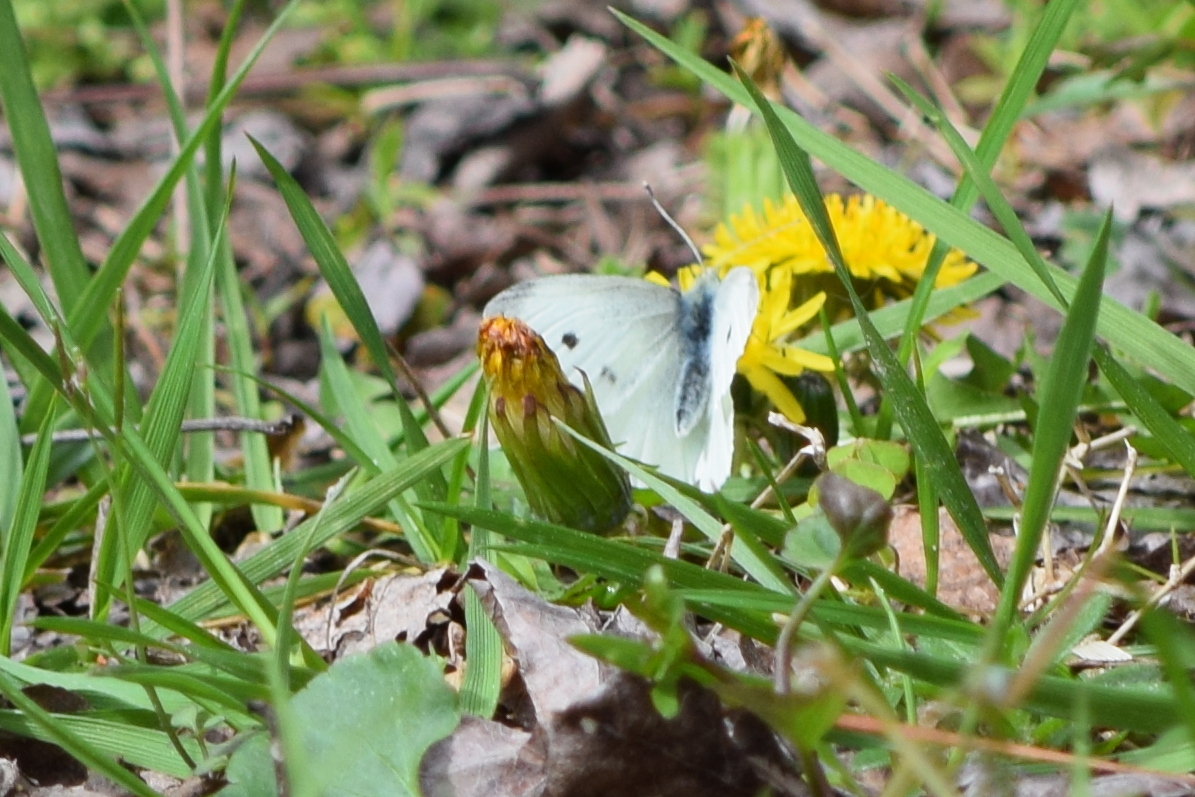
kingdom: Animalia
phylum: Arthropoda
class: Insecta
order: Lepidoptera
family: Pieridae
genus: Pieris
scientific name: Pieris rapae
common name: Small white
